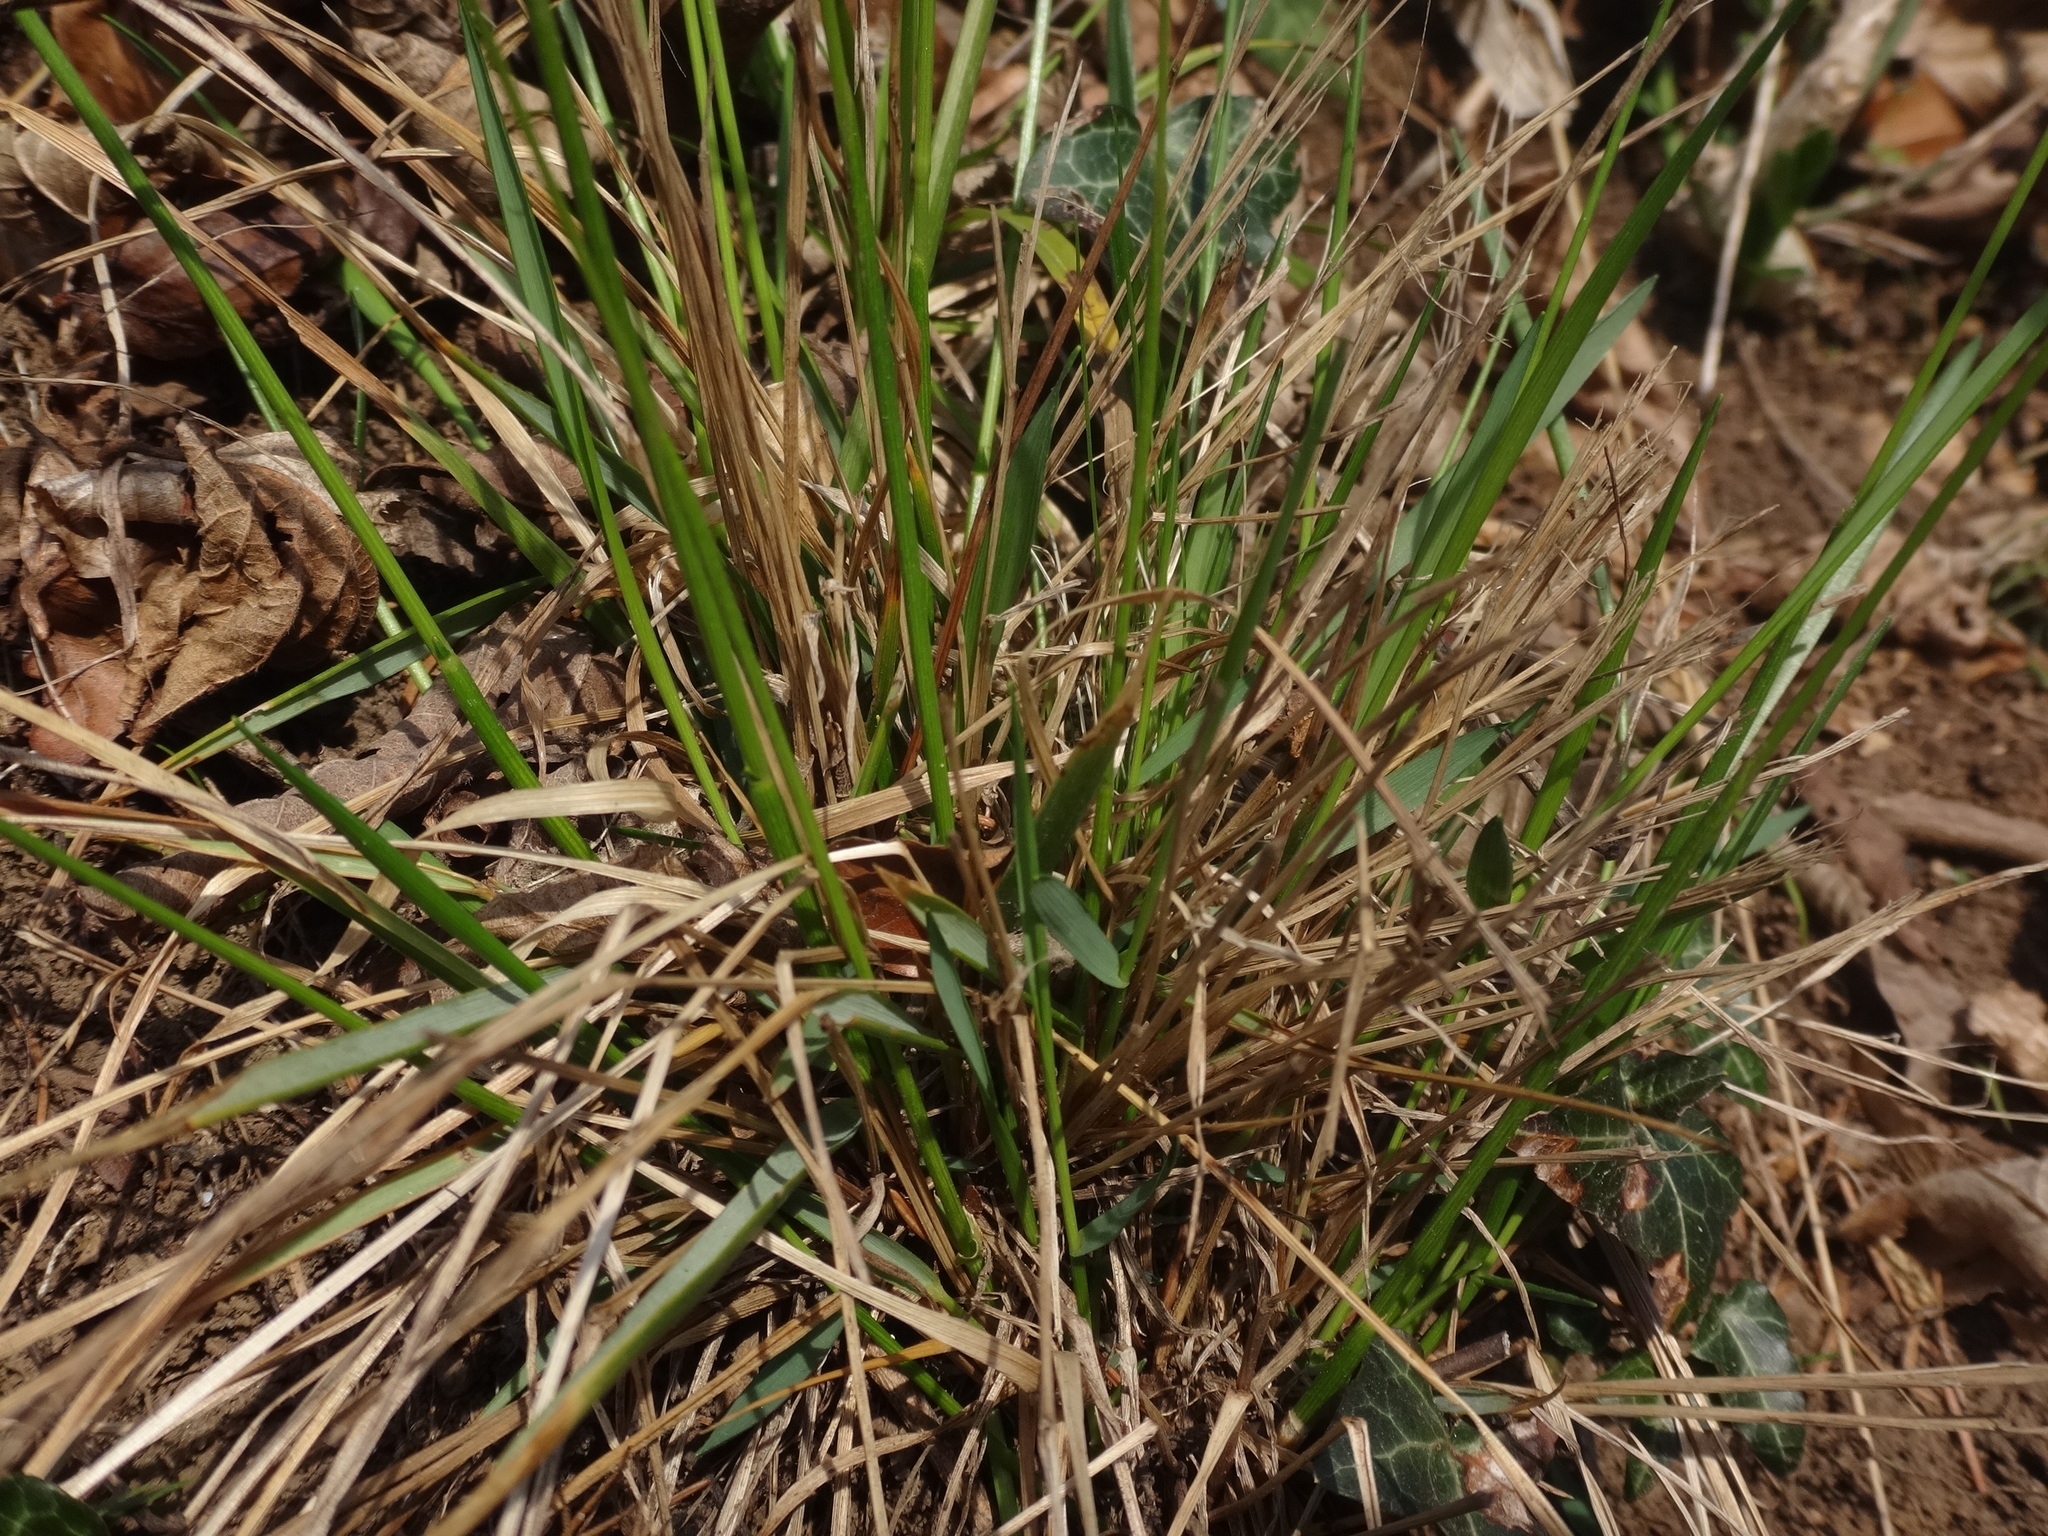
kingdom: Plantae
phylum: Tracheophyta
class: Liliopsida
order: Poales
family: Poaceae
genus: Anthoxanthum
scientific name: Anthoxanthum australe
